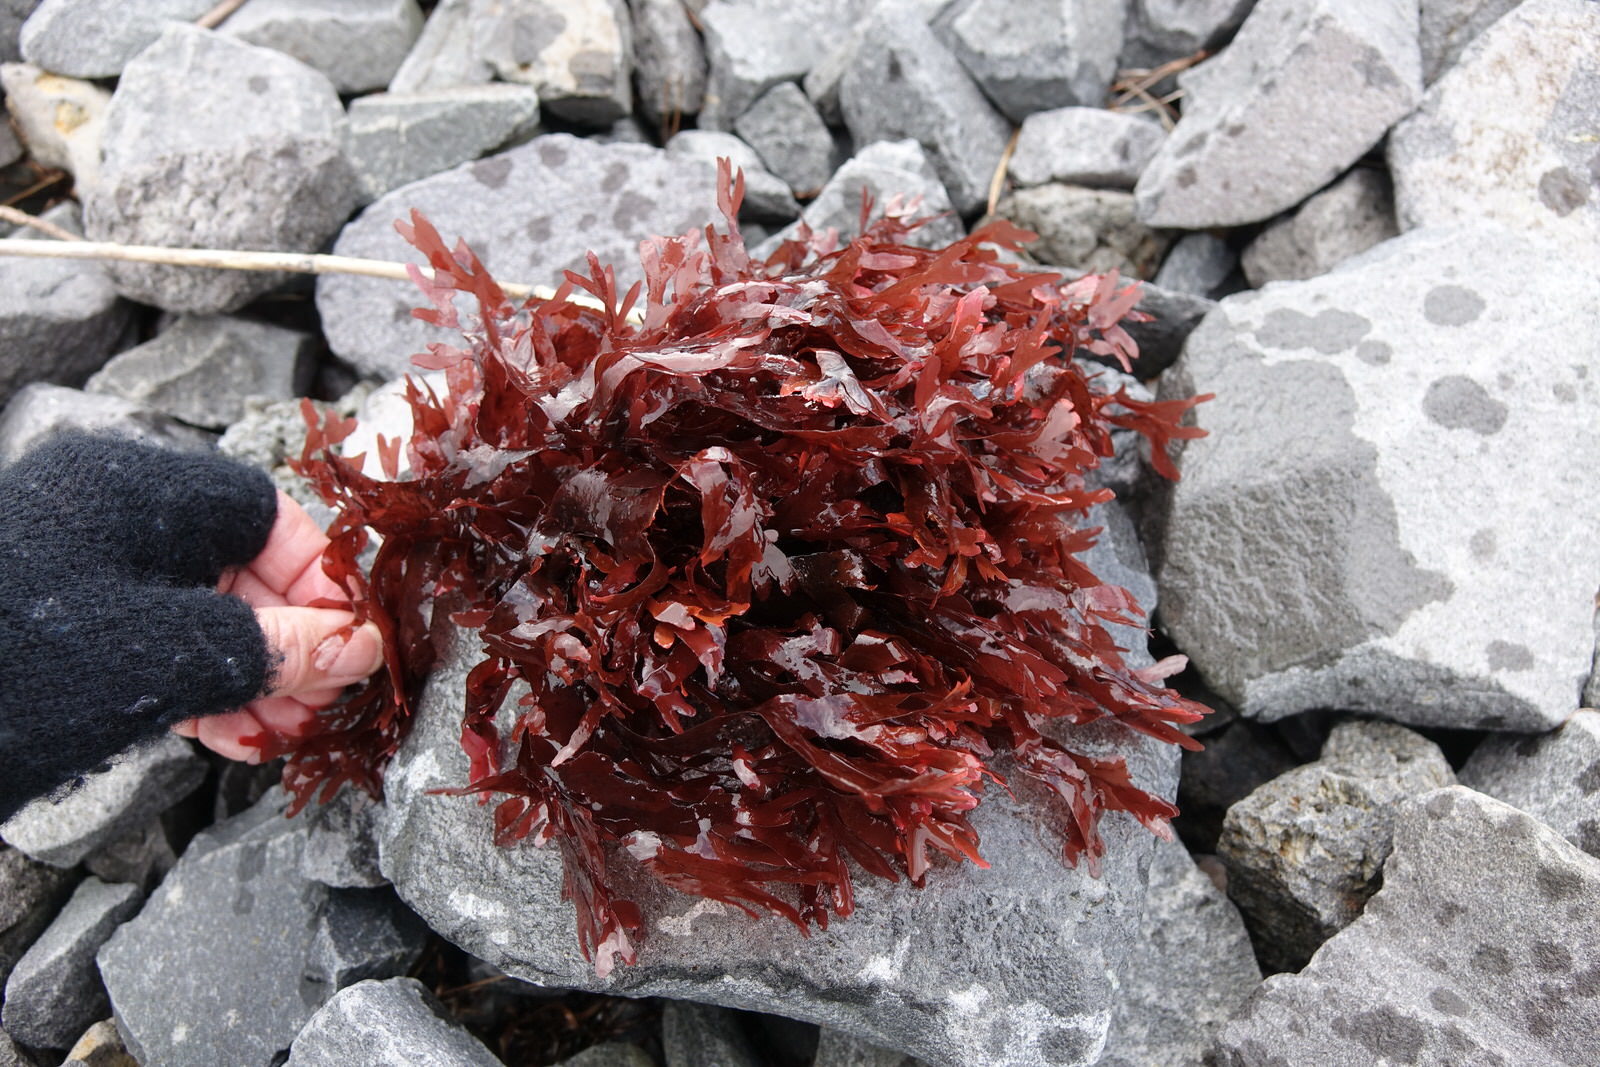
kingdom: Plantae
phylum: Rhodophyta
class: Florideophyceae
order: Gigartinales
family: Phyllophoraceae
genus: Stenogramma
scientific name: Stenogramma interruptum
